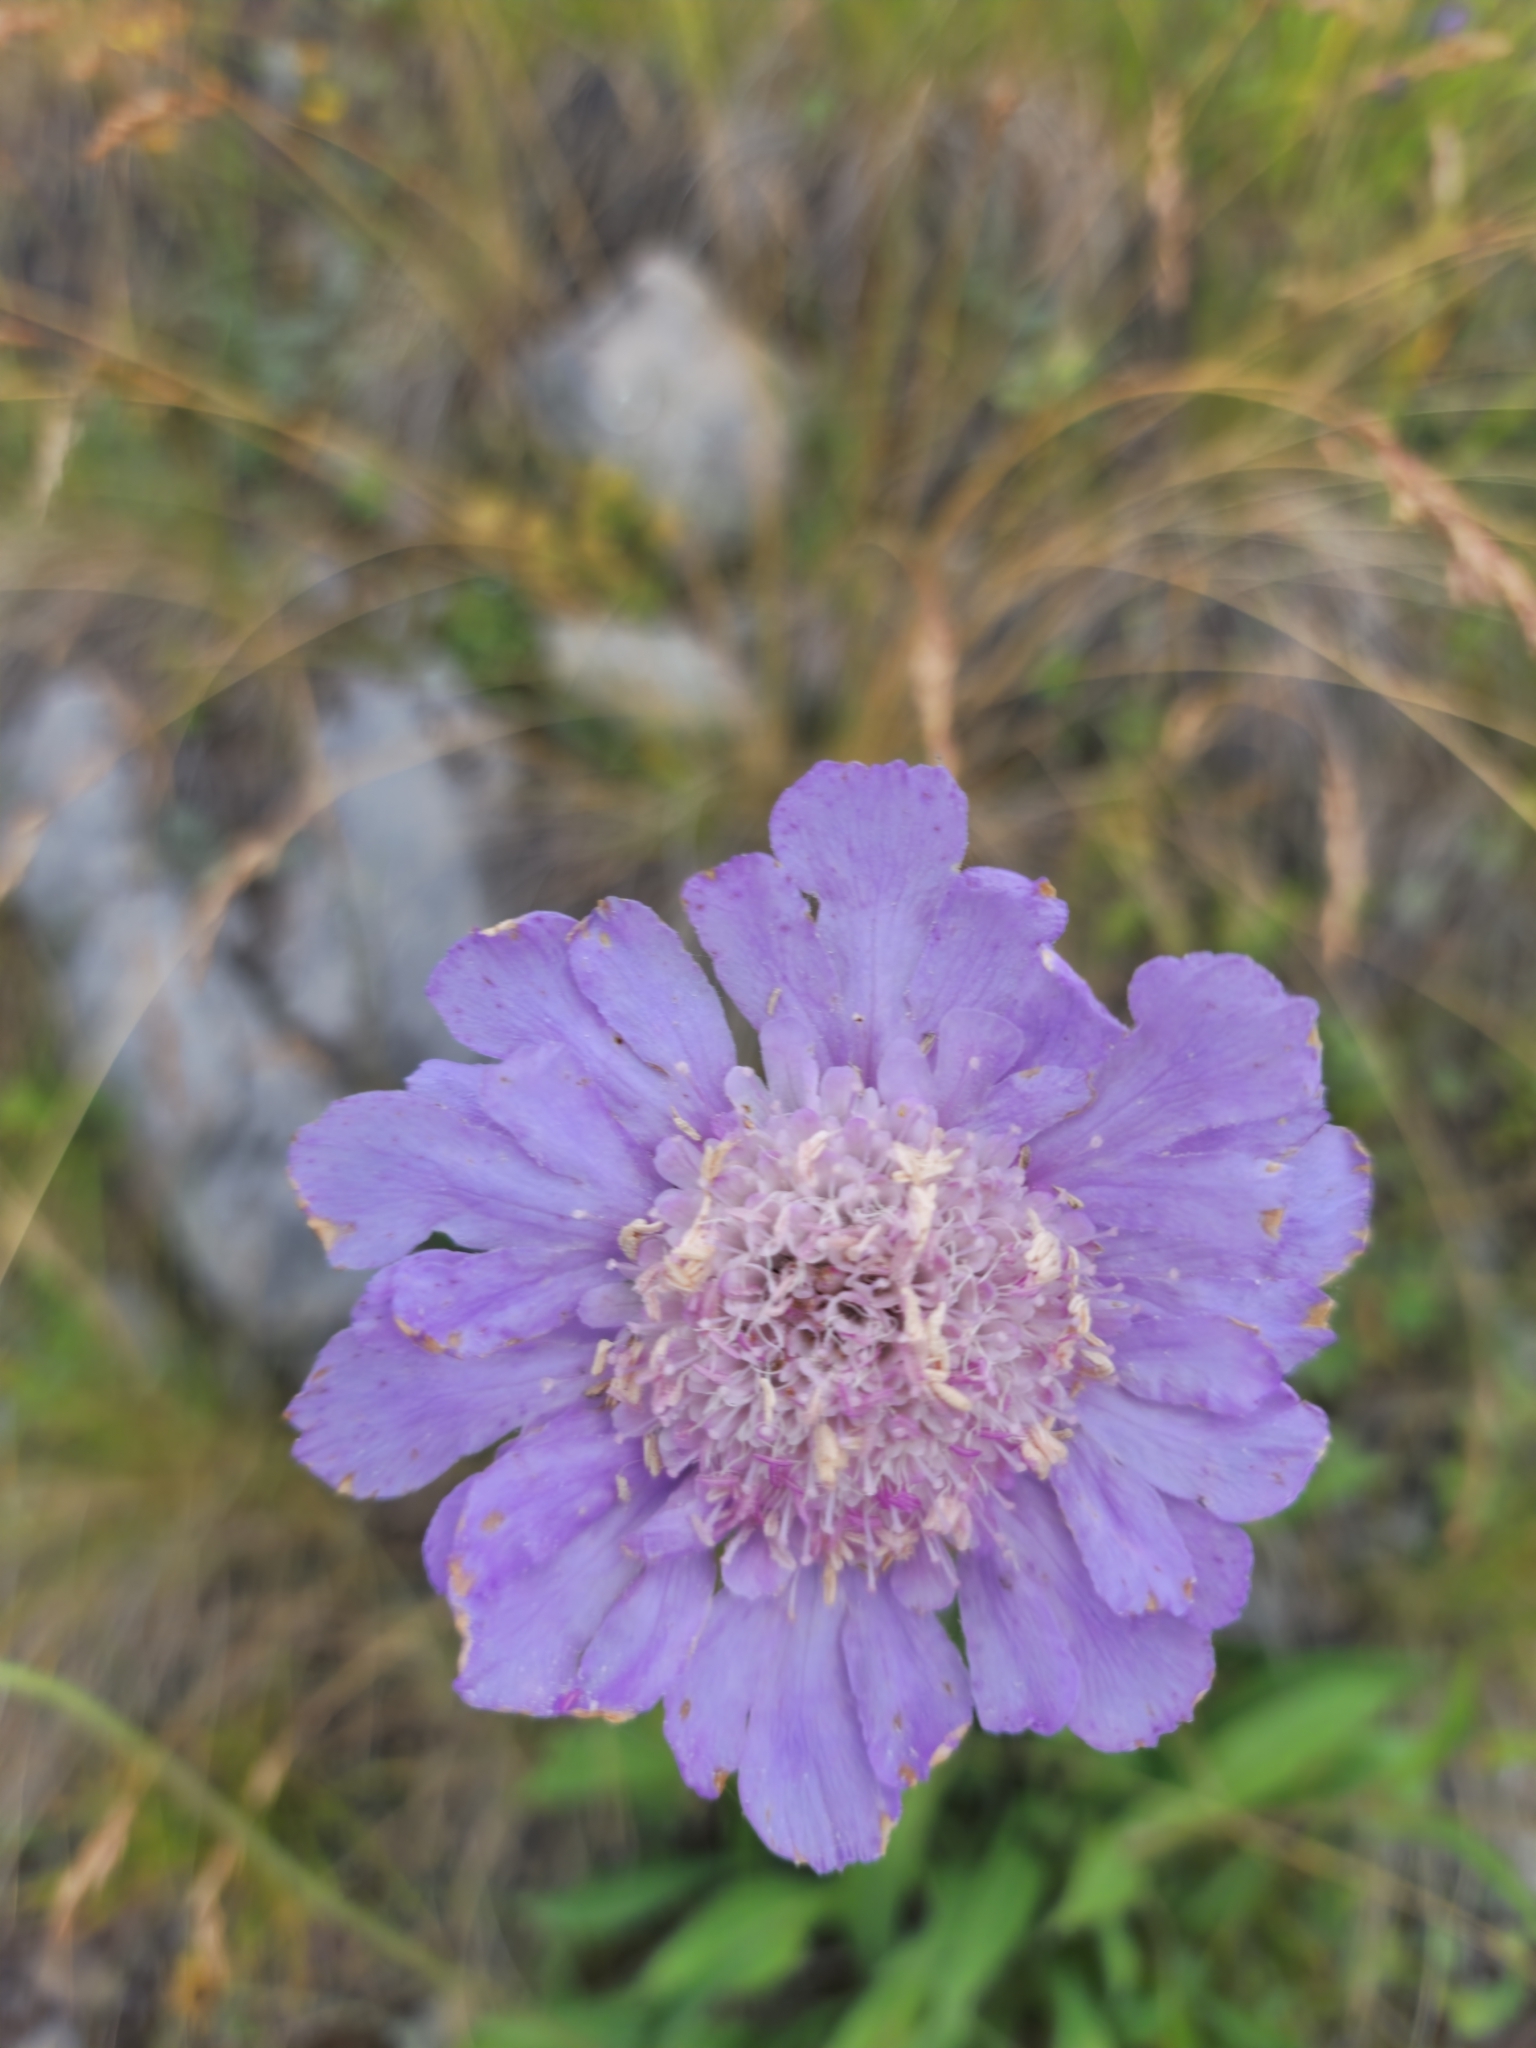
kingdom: Plantae
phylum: Tracheophyta
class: Magnoliopsida
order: Dipsacales
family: Caprifoliaceae
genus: Lomelosia
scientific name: Lomelosia caucasica
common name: Pincushion-flower
